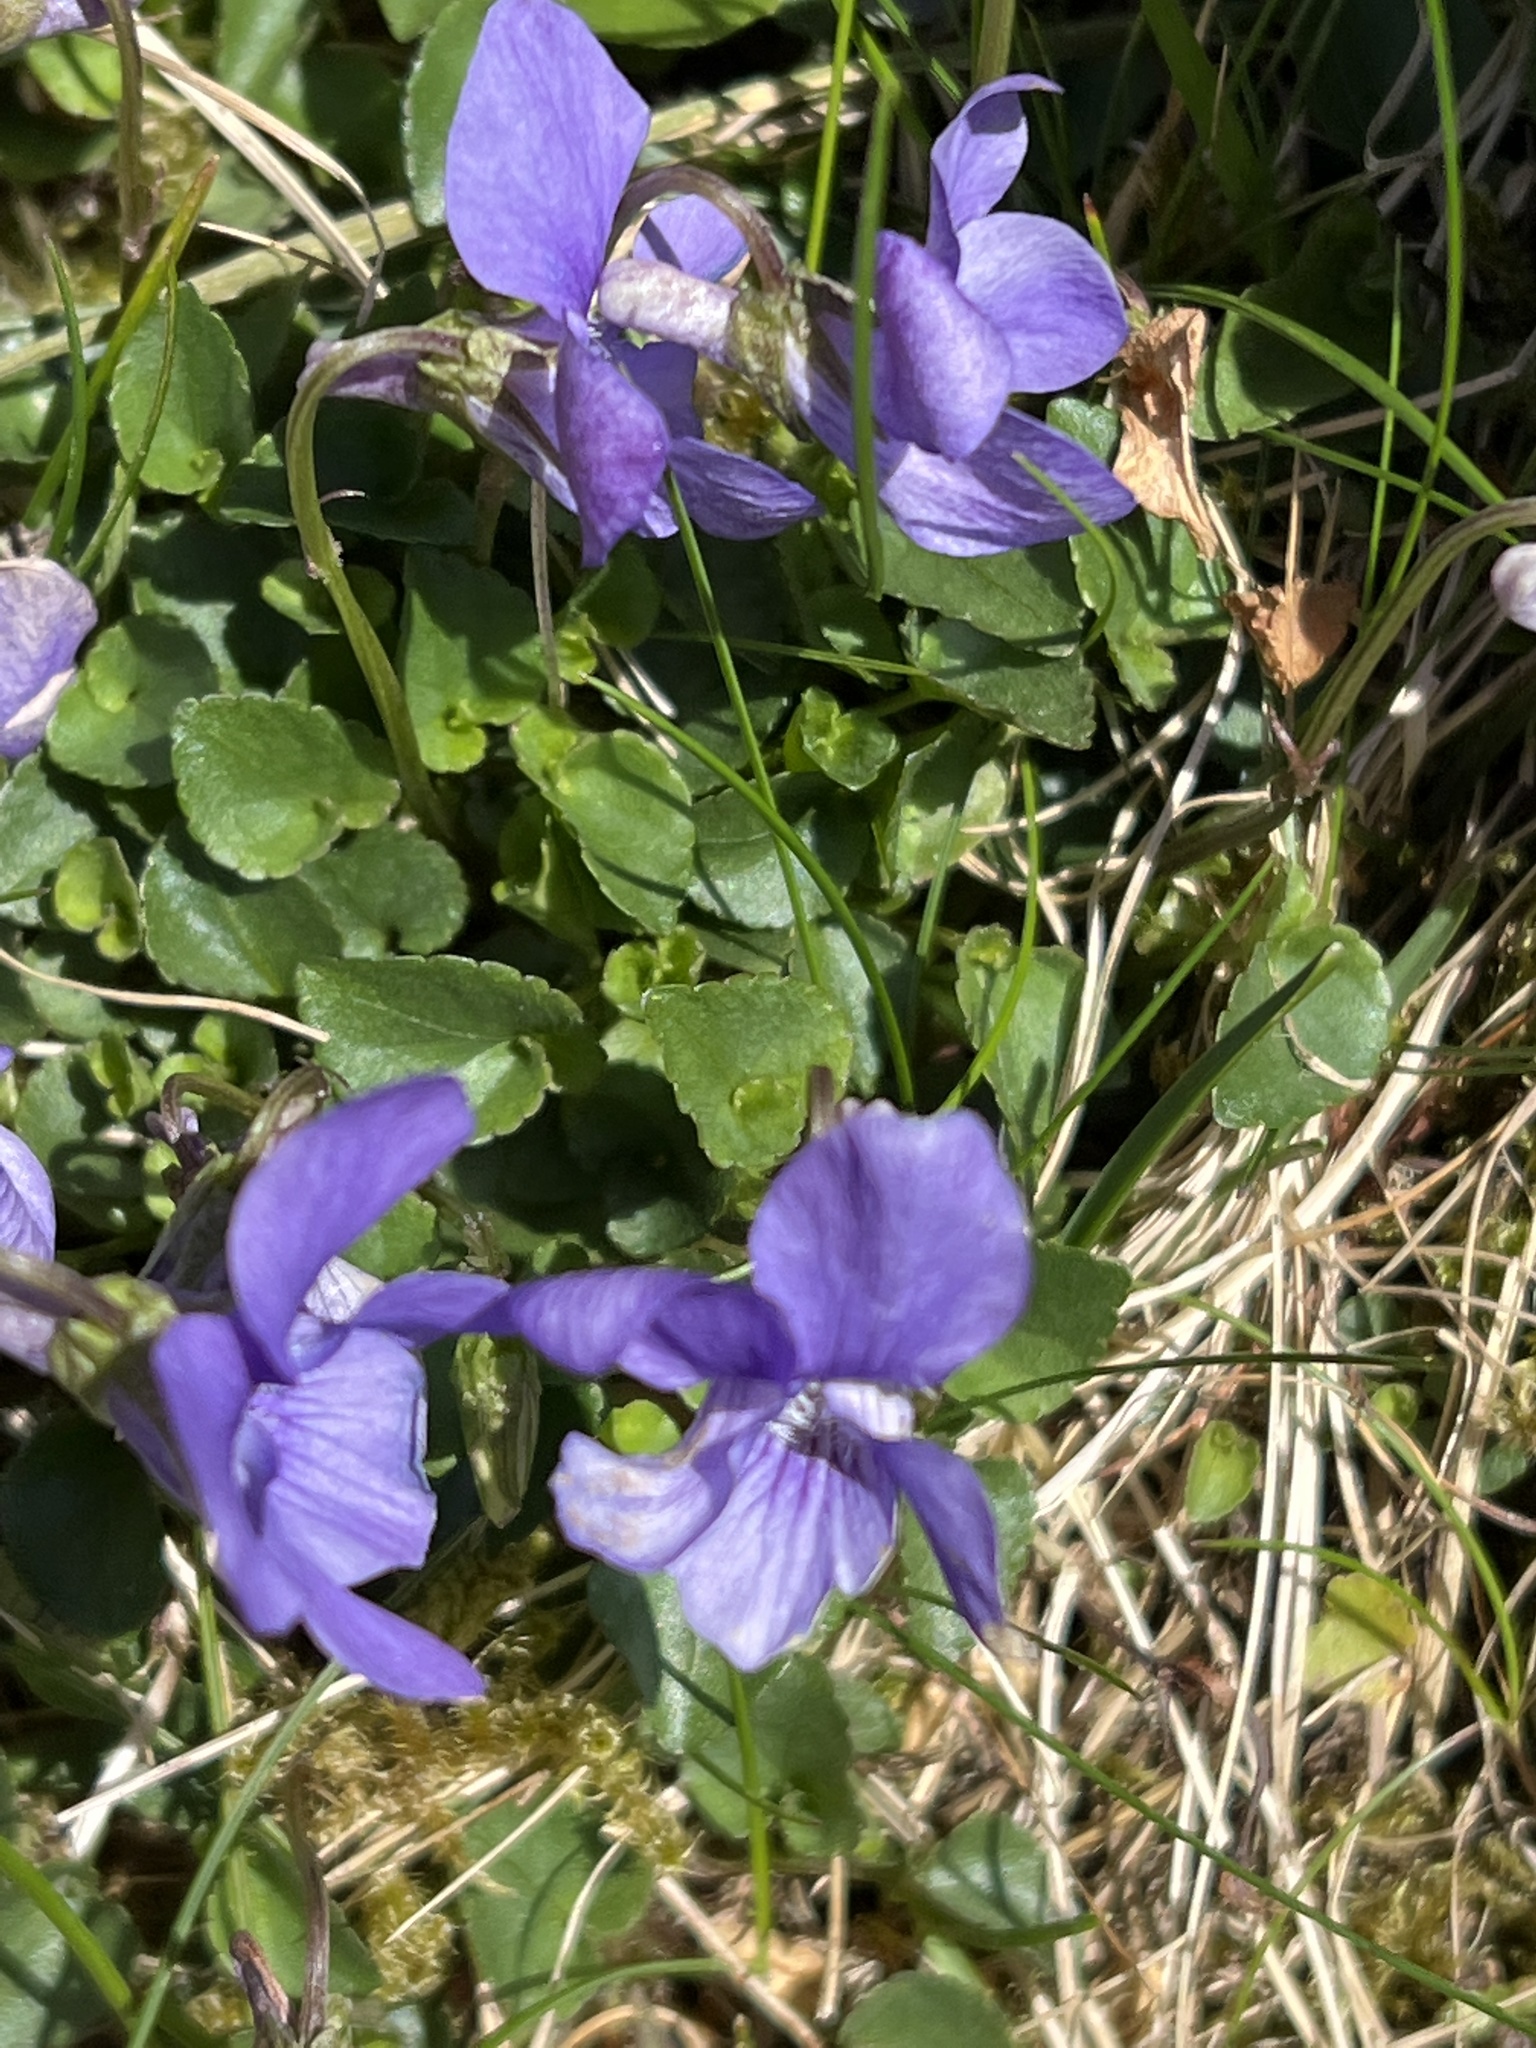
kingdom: Plantae
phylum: Tracheophyta
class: Magnoliopsida
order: Malpighiales
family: Violaceae
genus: Viola
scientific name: Viola riviniana
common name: Common dog-violet
